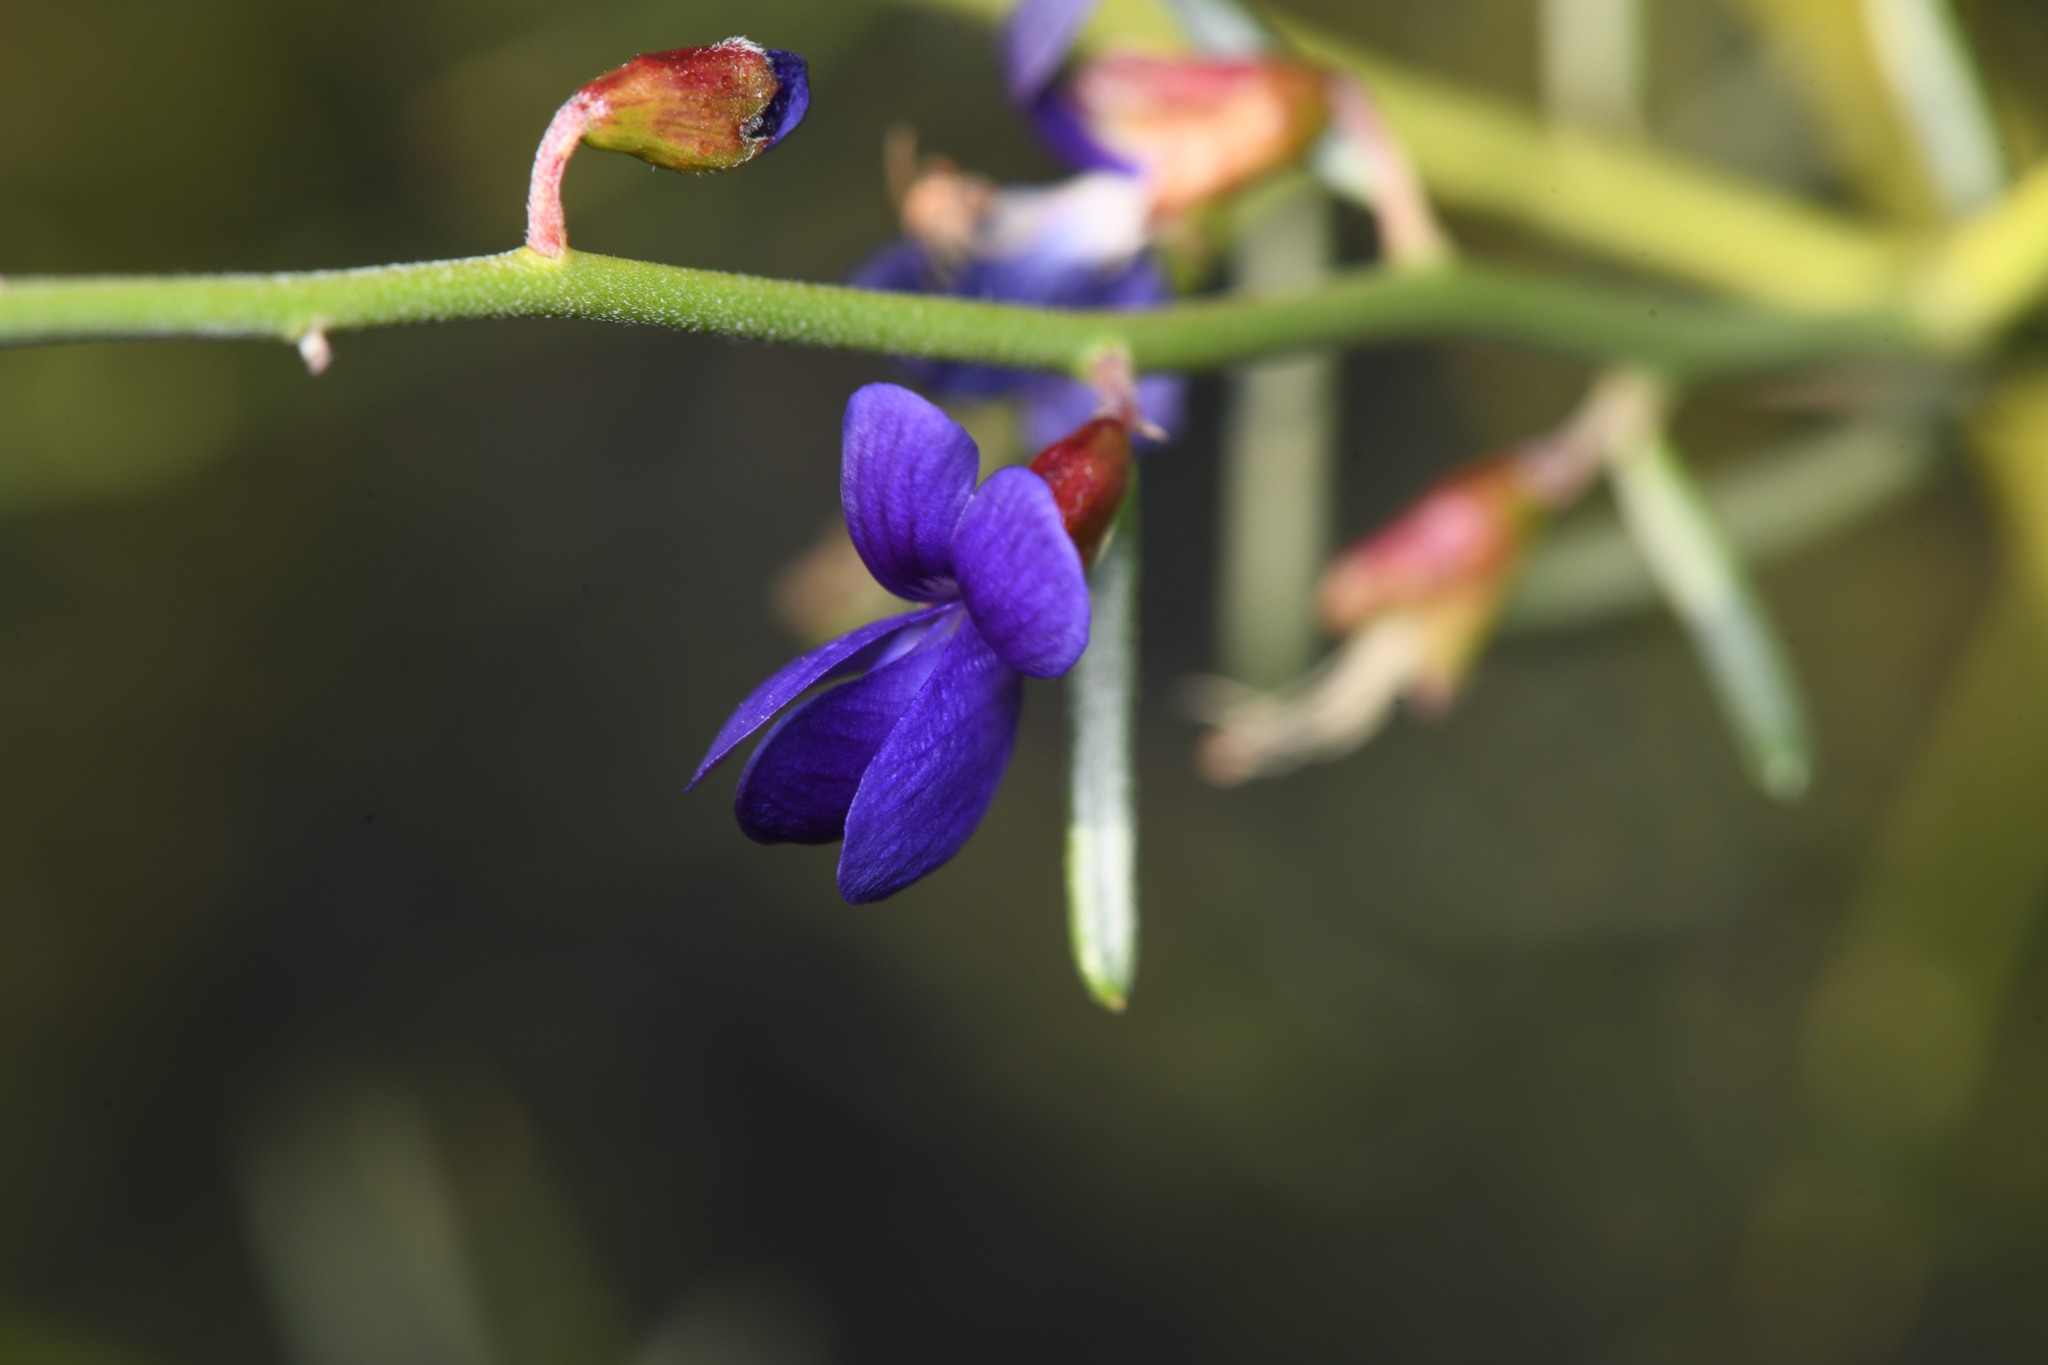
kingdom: Plantae
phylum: Tracheophyta
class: Magnoliopsida
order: Fabales
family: Fabaceae
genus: Psorothamnus
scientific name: Psorothamnus schottii
